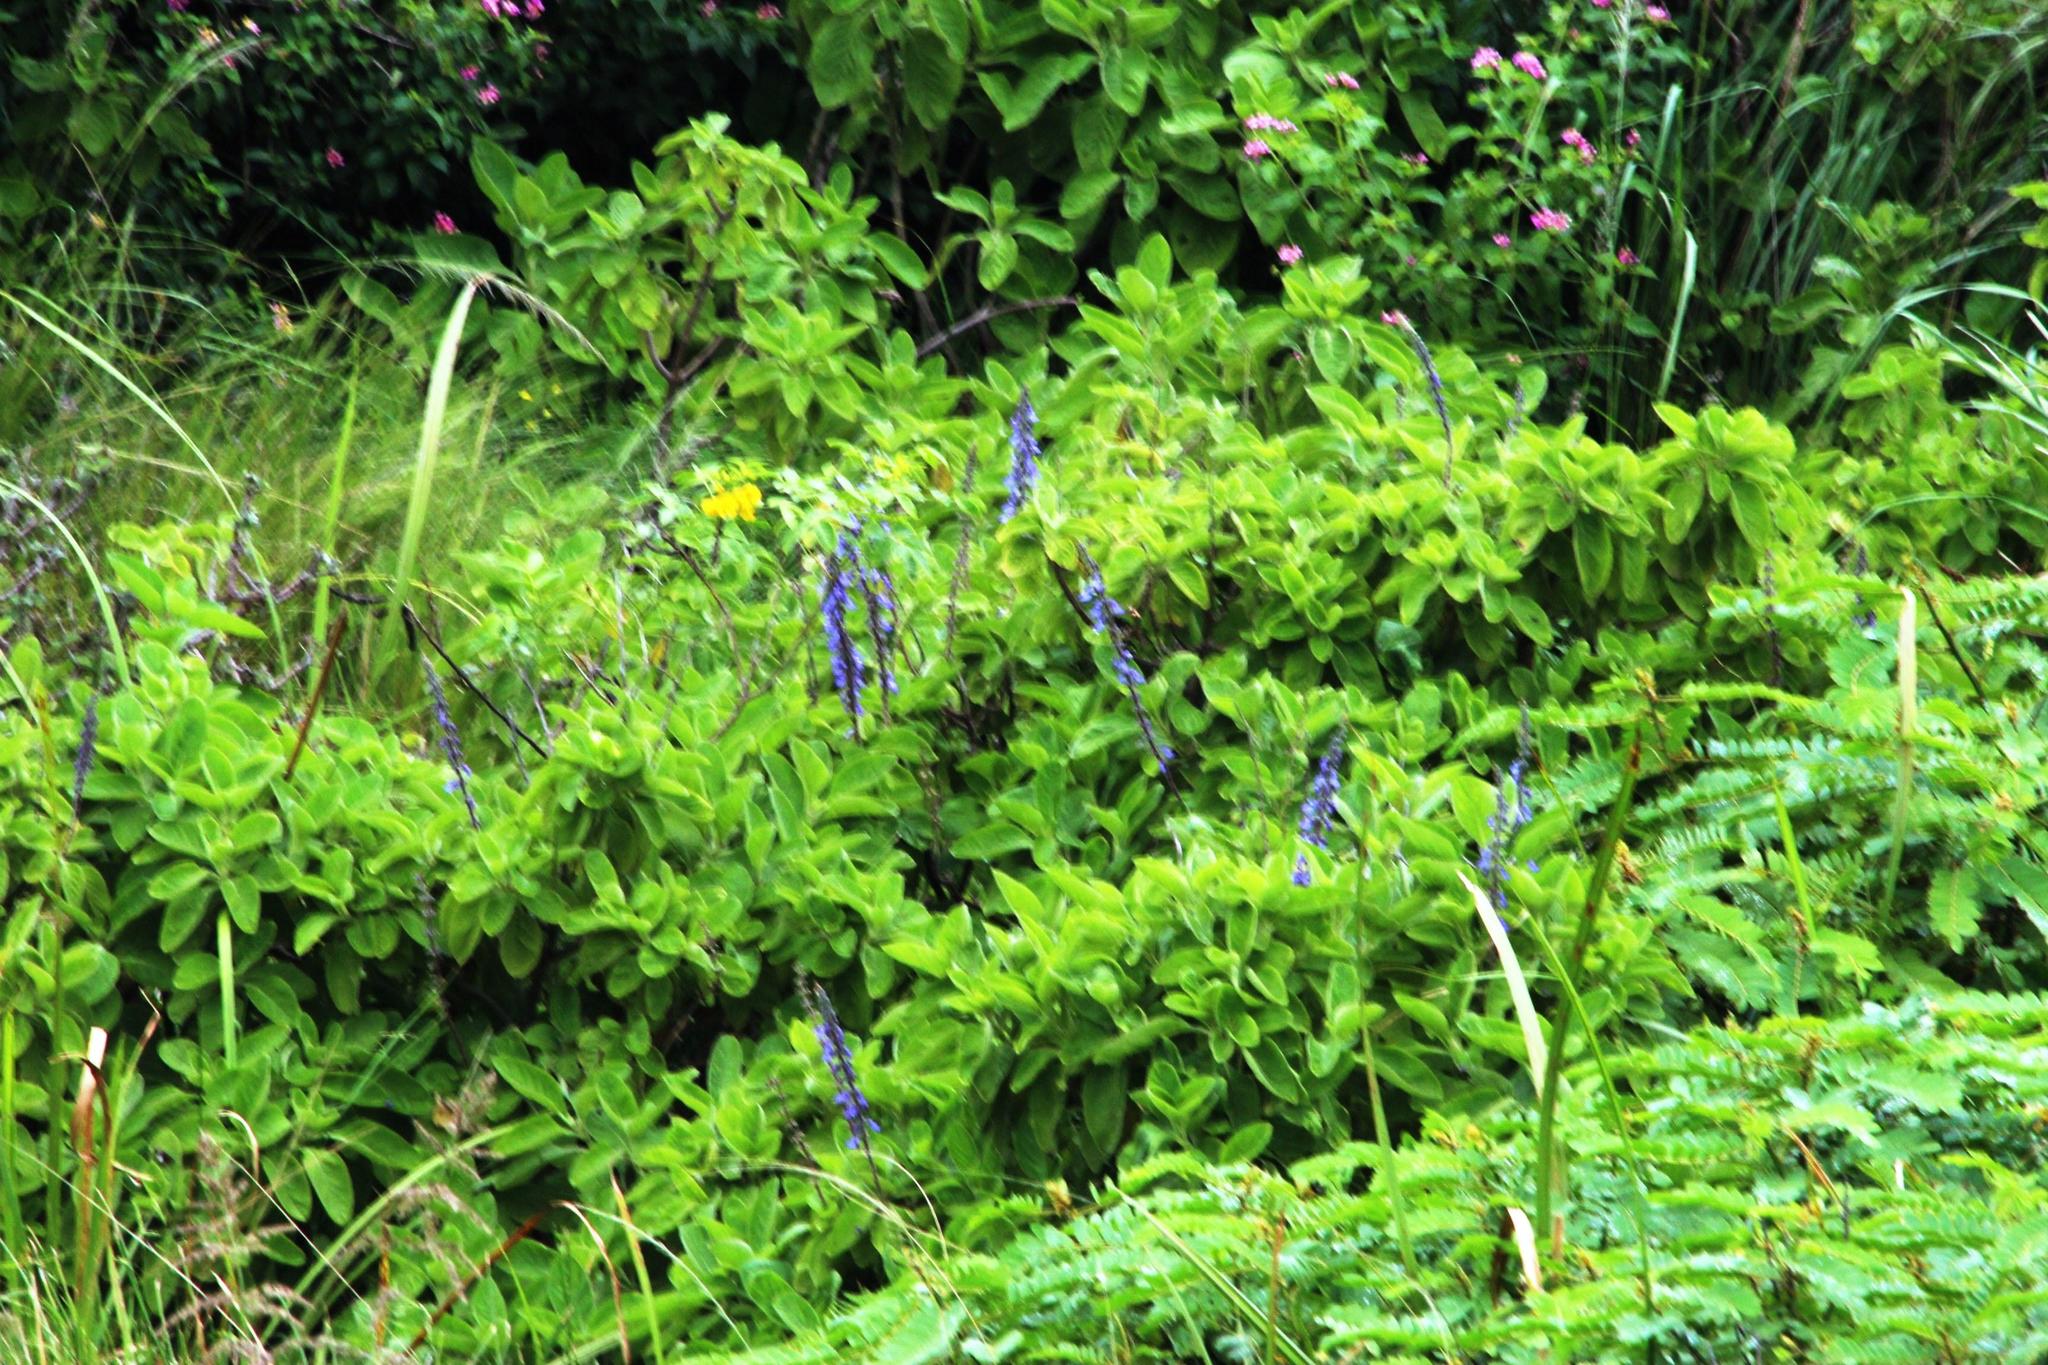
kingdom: Plantae
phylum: Tracheophyta
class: Magnoliopsida
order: Lamiales
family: Lamiaceae
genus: Coleus
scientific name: Coleus barbatus
